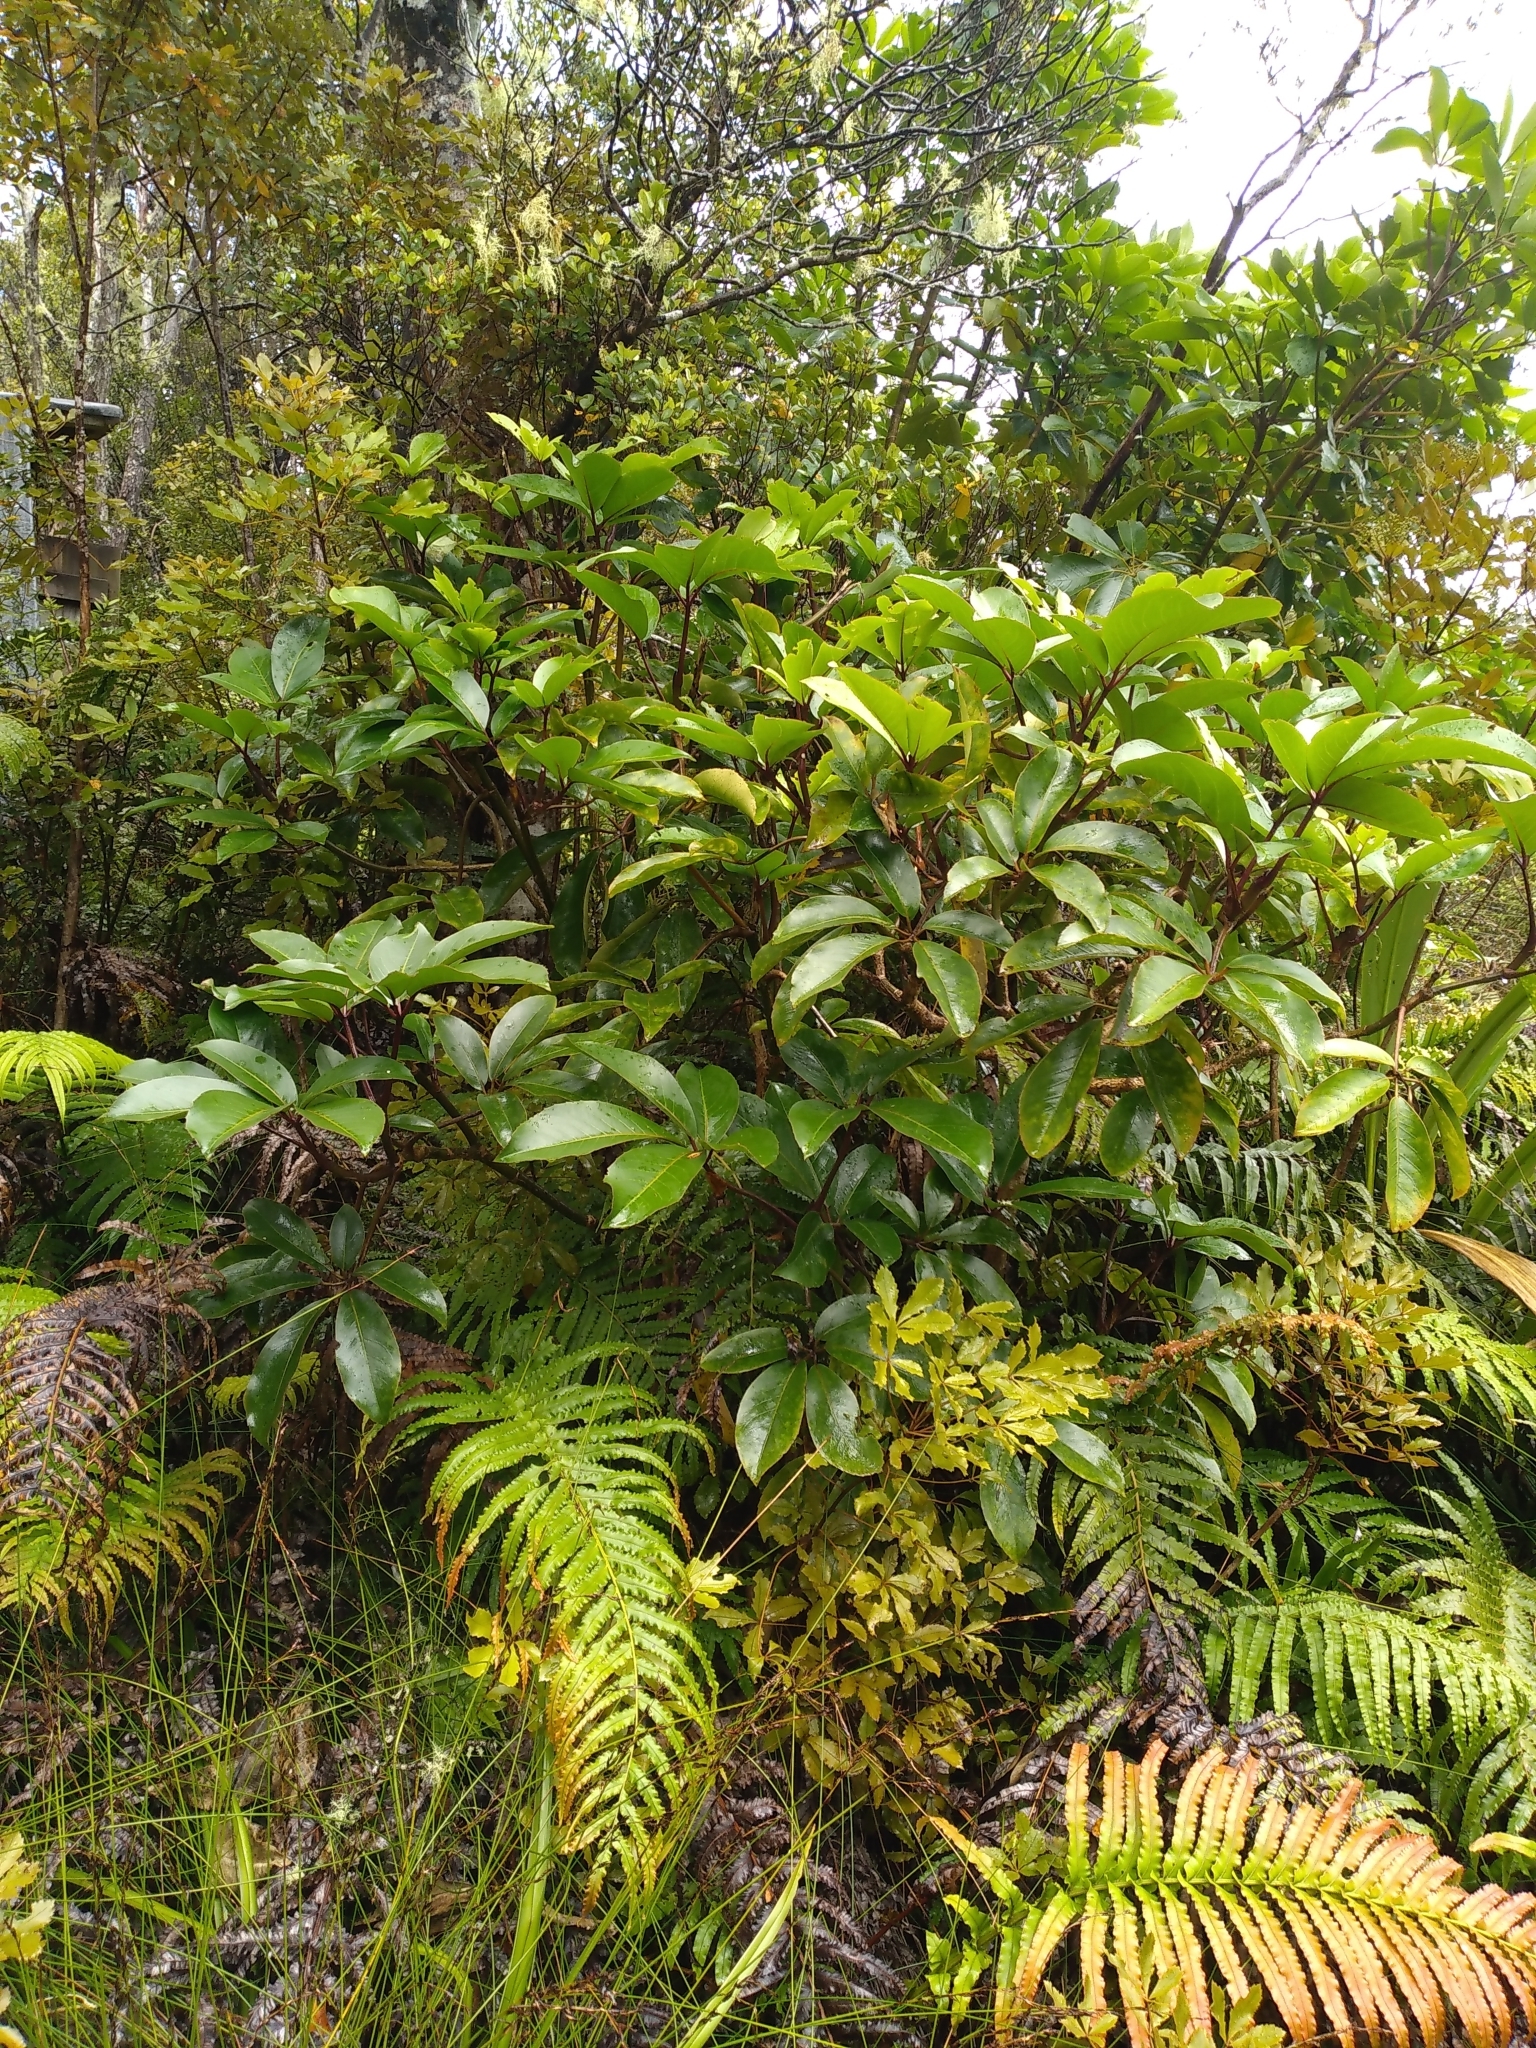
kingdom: Plantae
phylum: Tracheophyta
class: Magnoliopsida
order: Apiales
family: Araliaceae
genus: Neopanax
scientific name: Neopanax laetus
